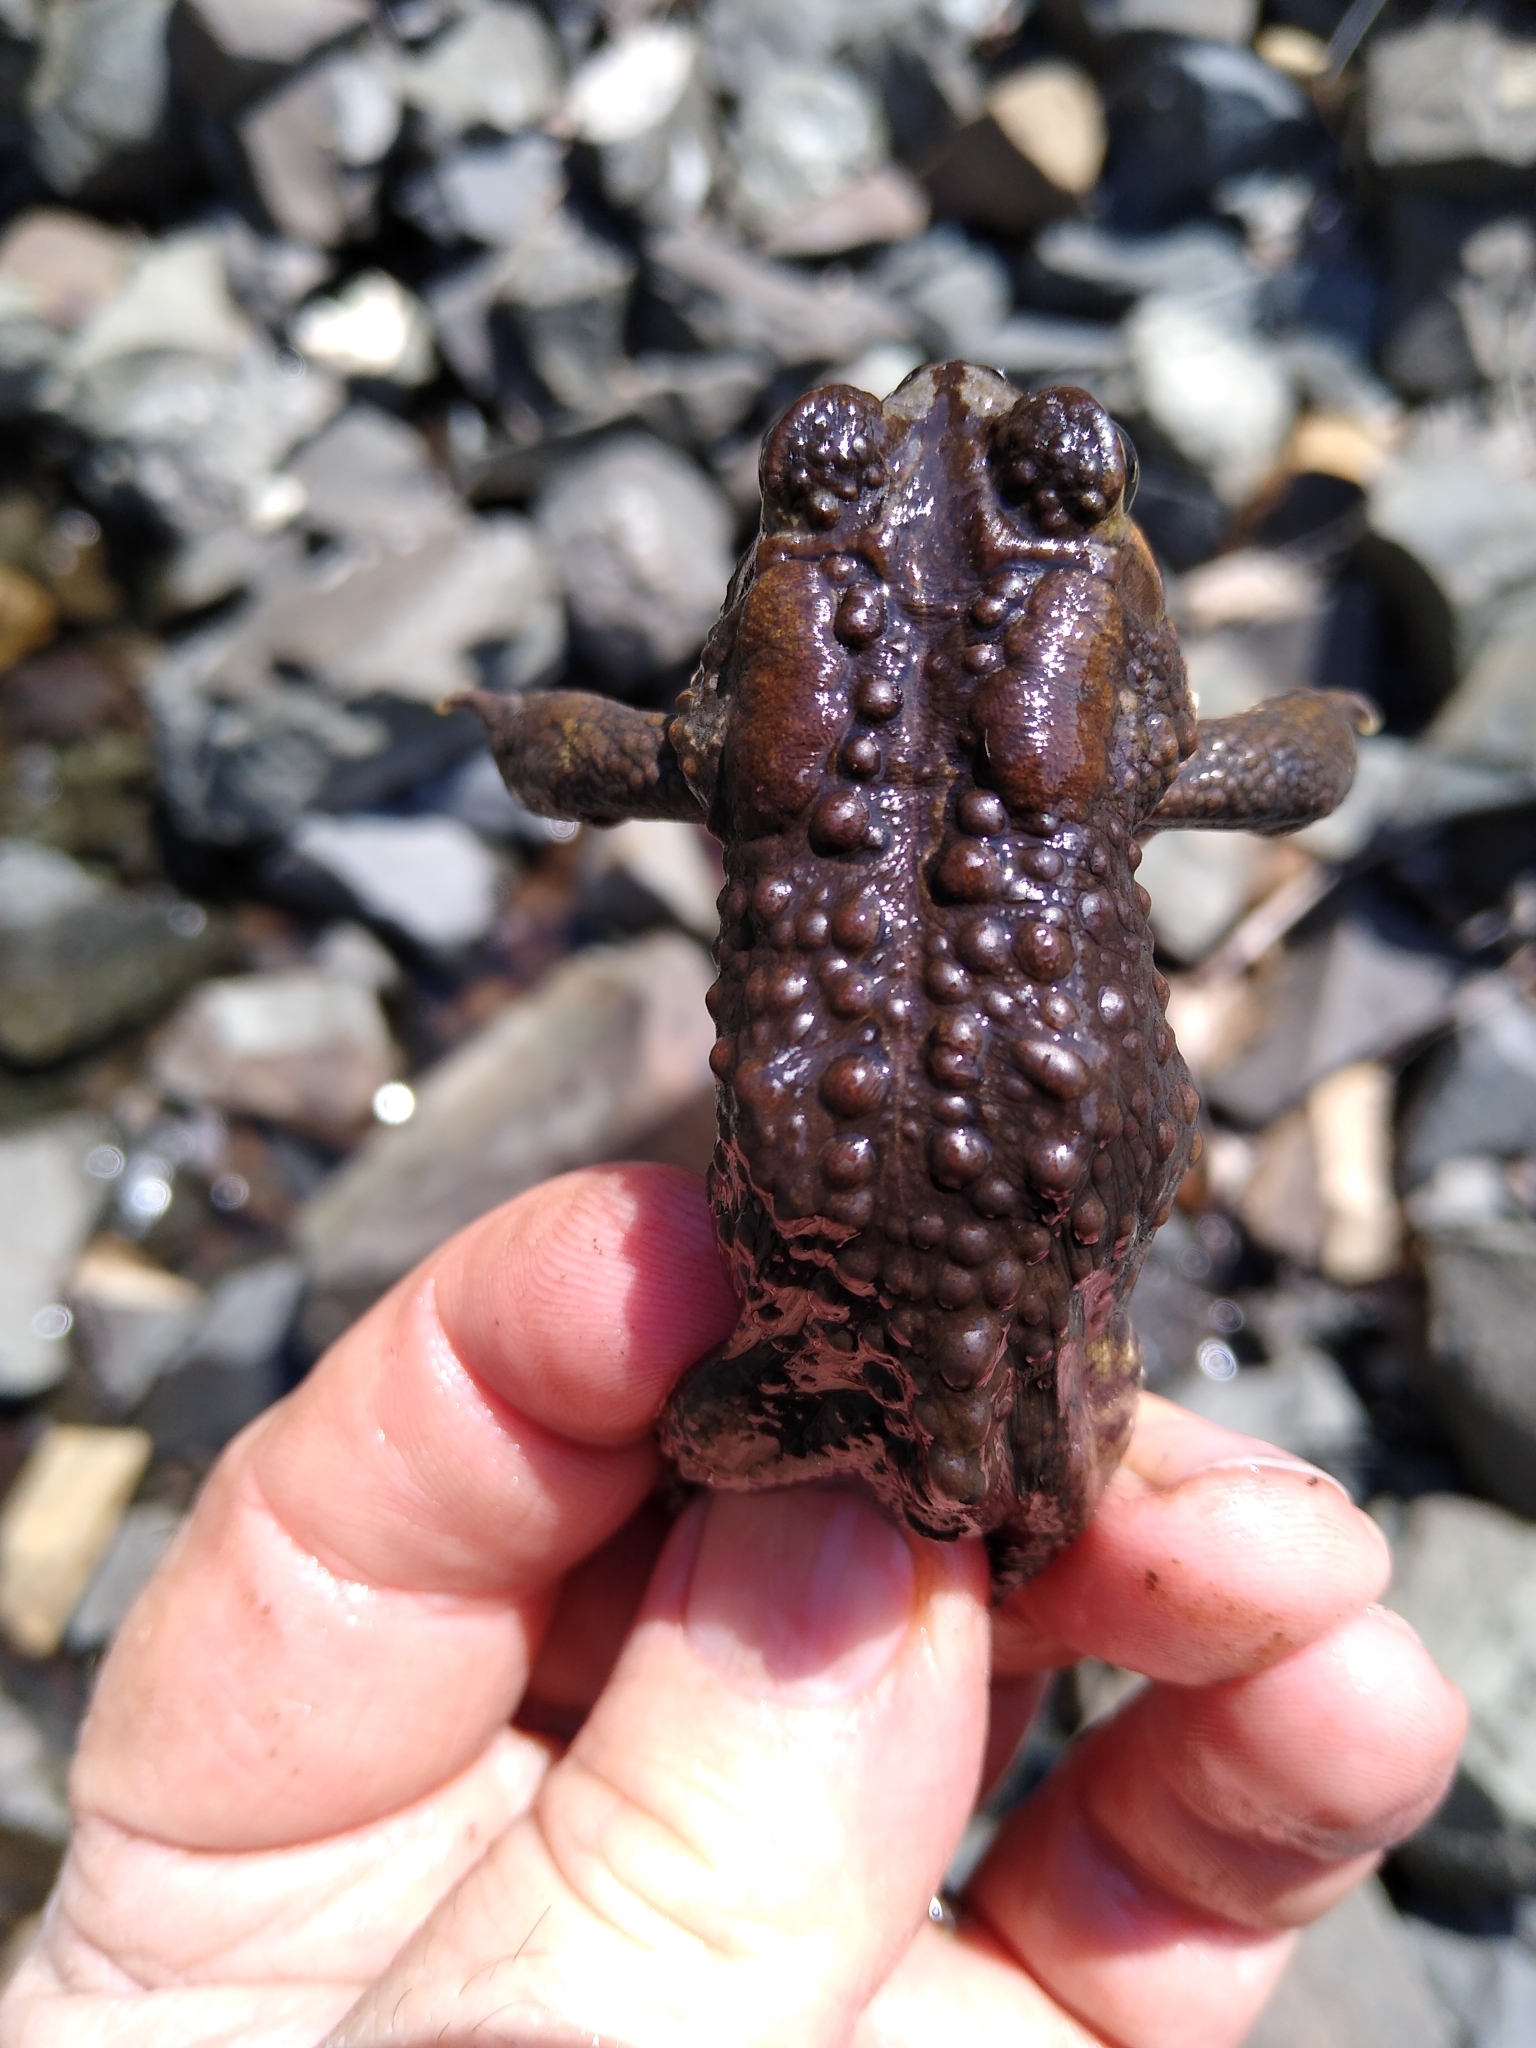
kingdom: Animalia
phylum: Chordata
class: Amphibia
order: Anura
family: Bufonidae
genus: Anaxyrus
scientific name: Anaxyrus americanus
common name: American toad
